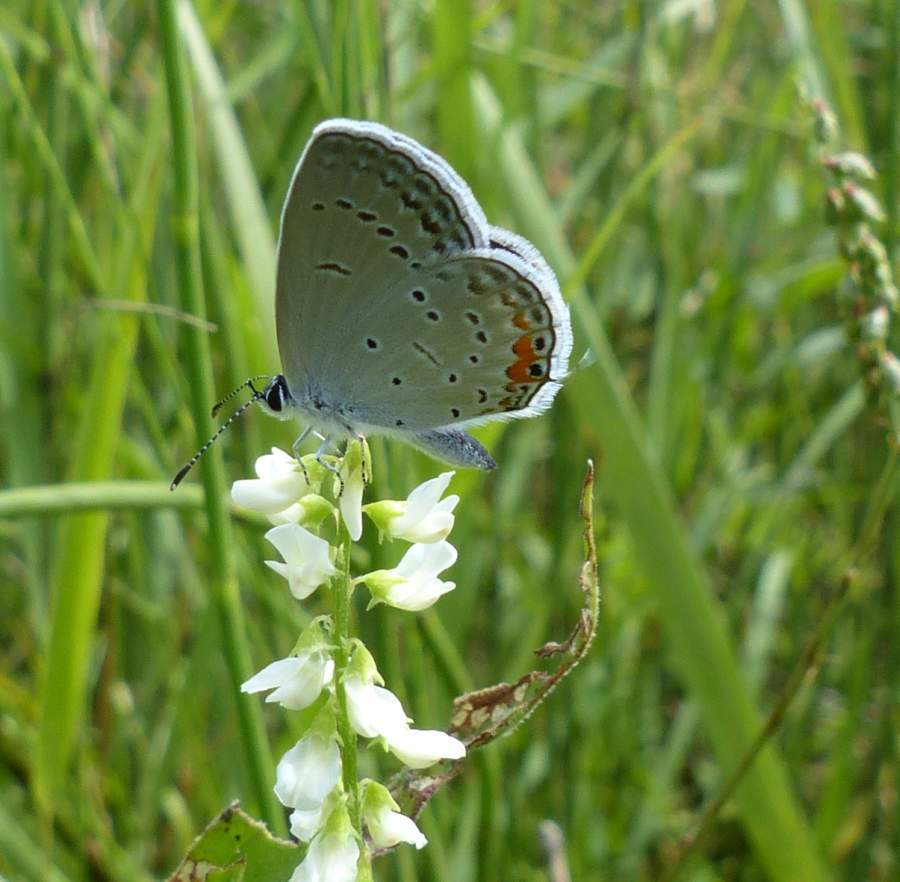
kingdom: Animalia
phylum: Arthropoda
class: Insecta
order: Lepidoptera
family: Lycaenidae
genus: Elkalyce
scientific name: Elkalyce comyntas
